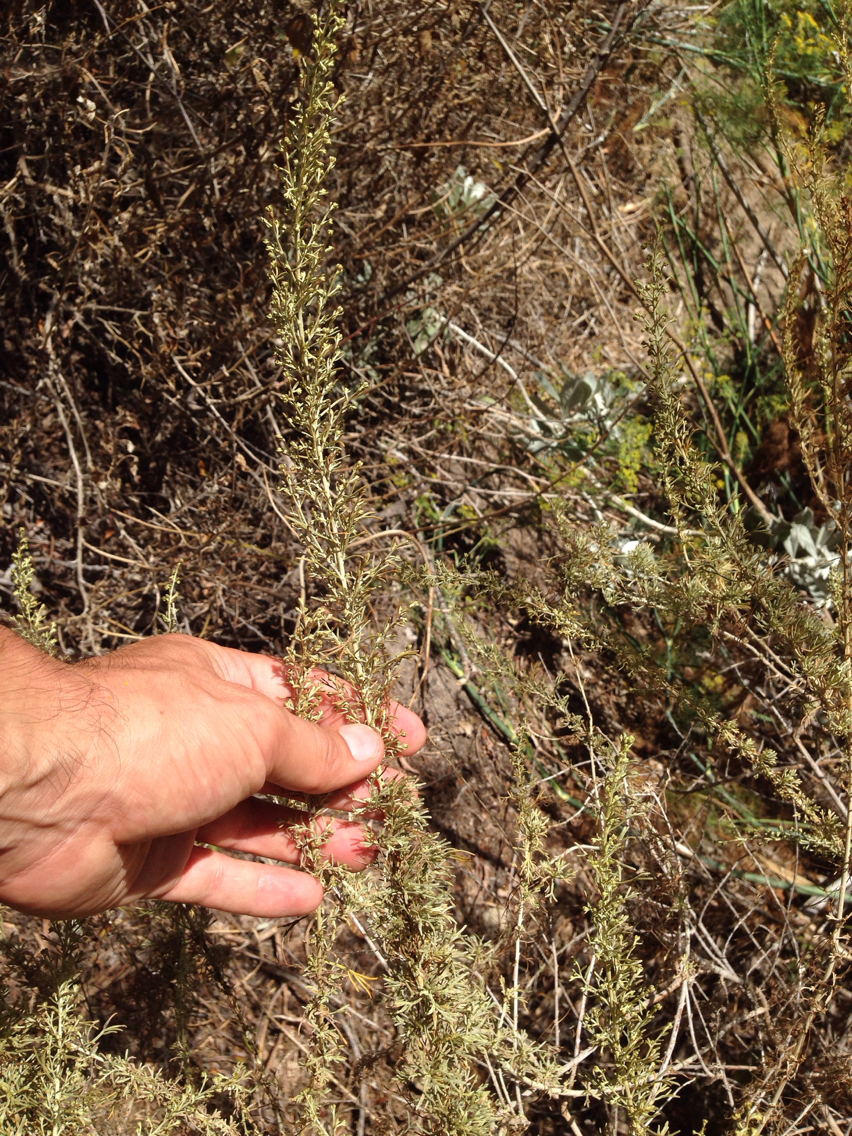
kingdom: Plantae
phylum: Tracheophyta
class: Magnoliopsida
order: Asterales
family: Asteraceae
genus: Artemisia
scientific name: Artemisia californica
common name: California sagebrush
